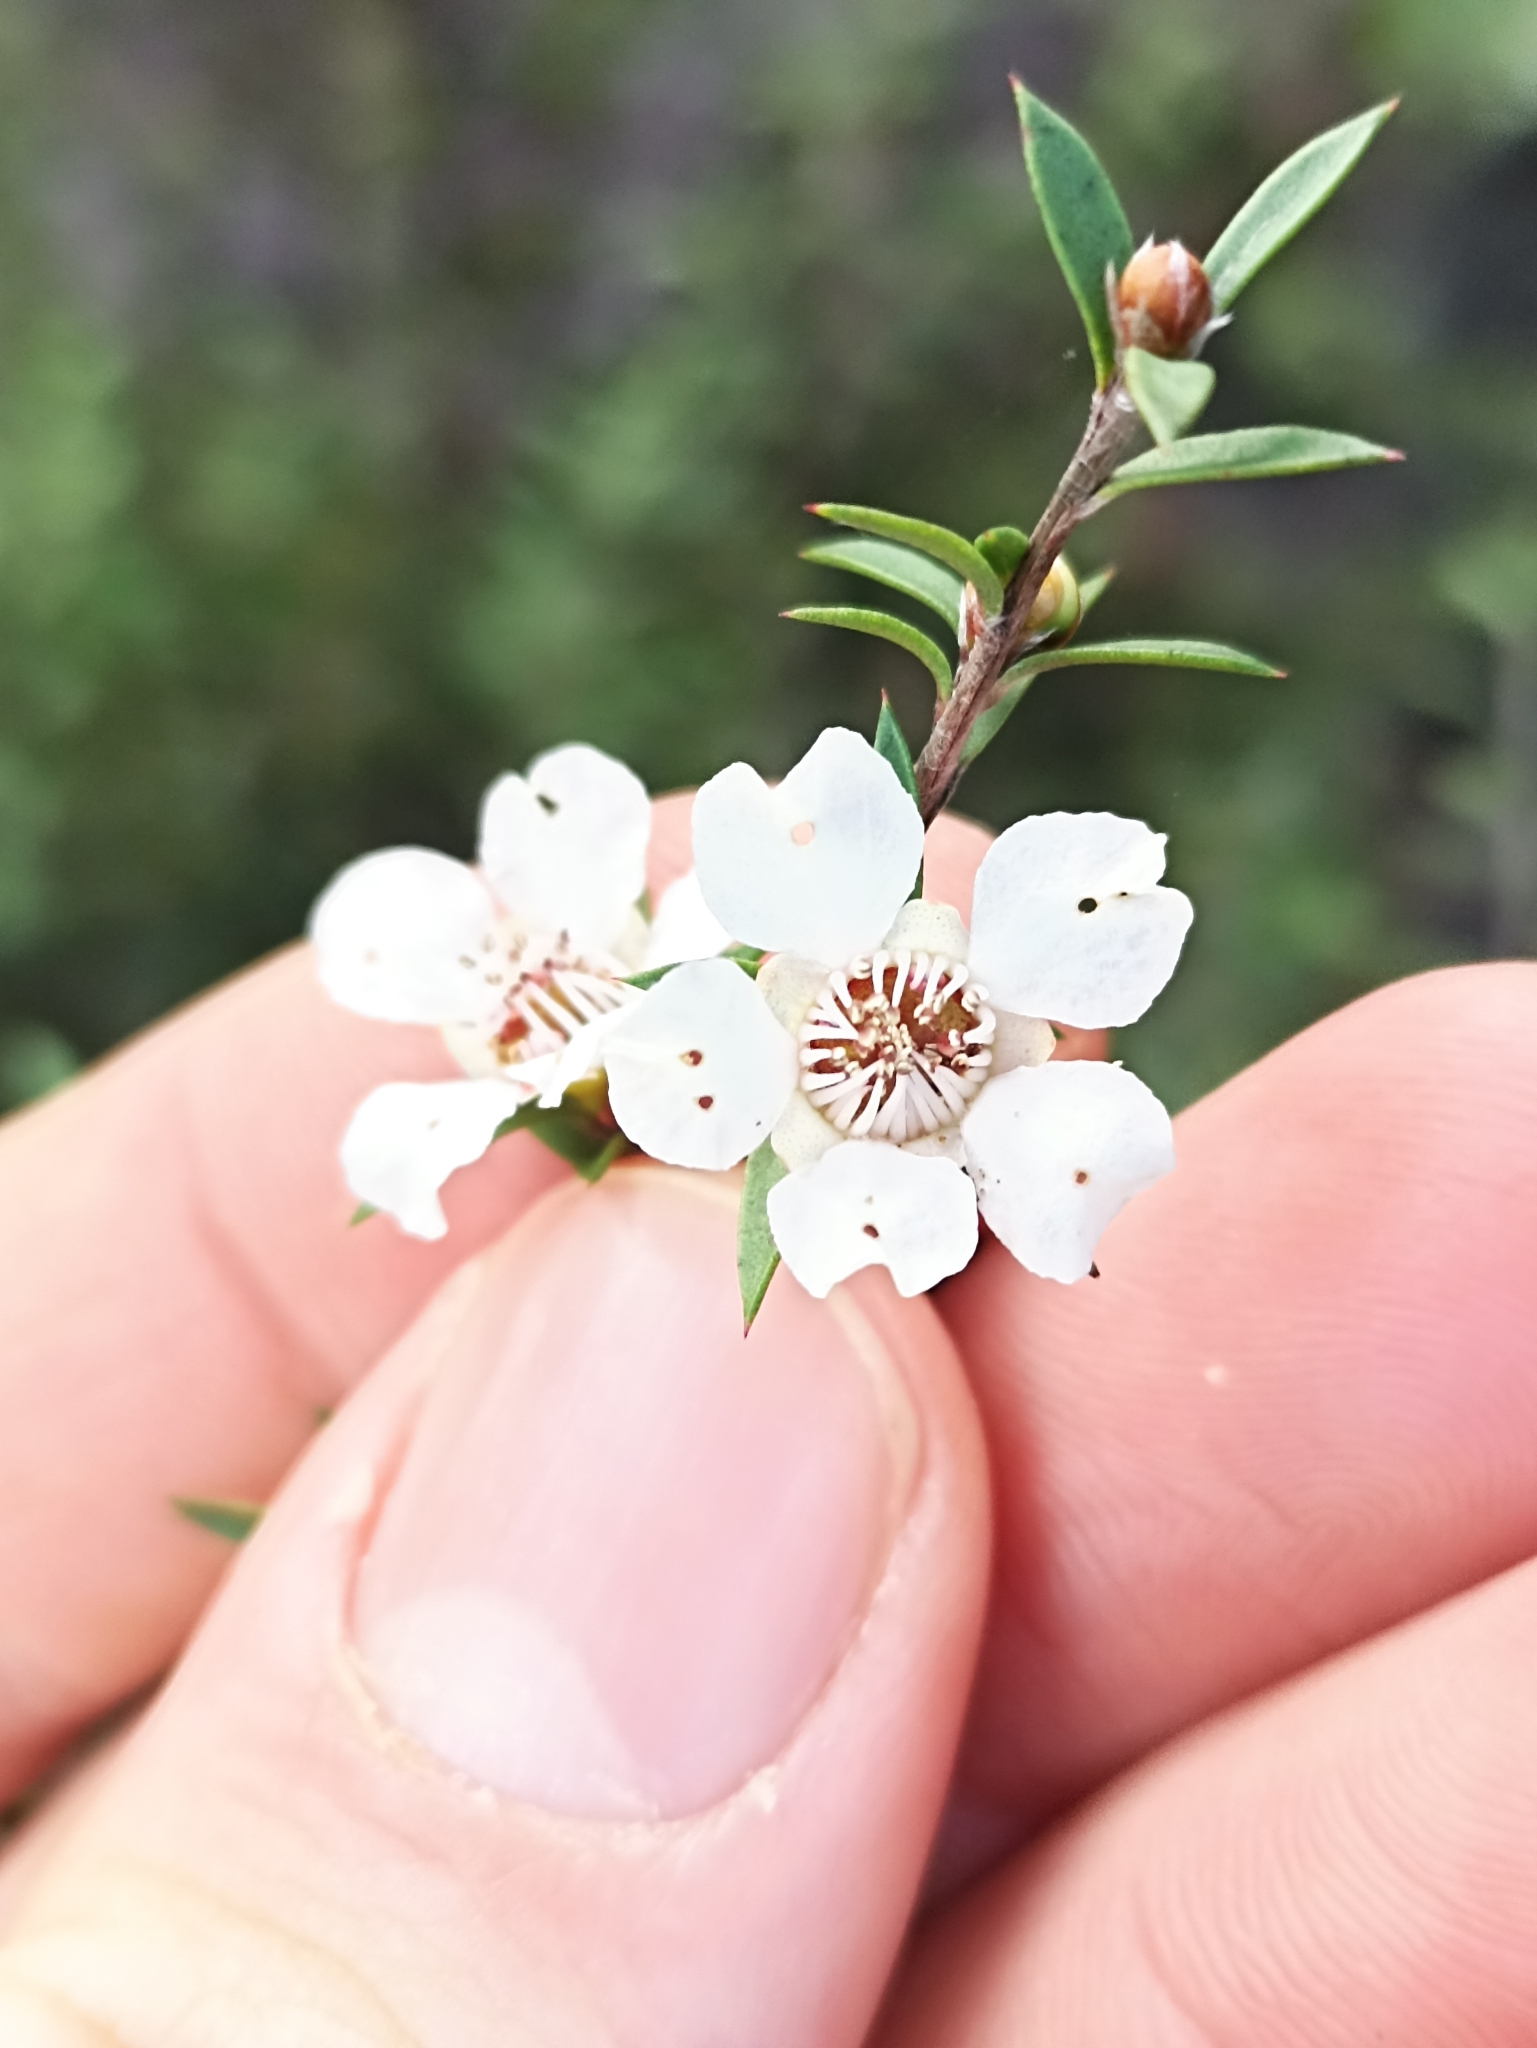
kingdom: Plantae
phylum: Tracheophyta
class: Magnoliopsida
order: Myrtales
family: Myrtaceae
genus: Leptospermum
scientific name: Leptospermum scoparium
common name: Broom tea-tree
